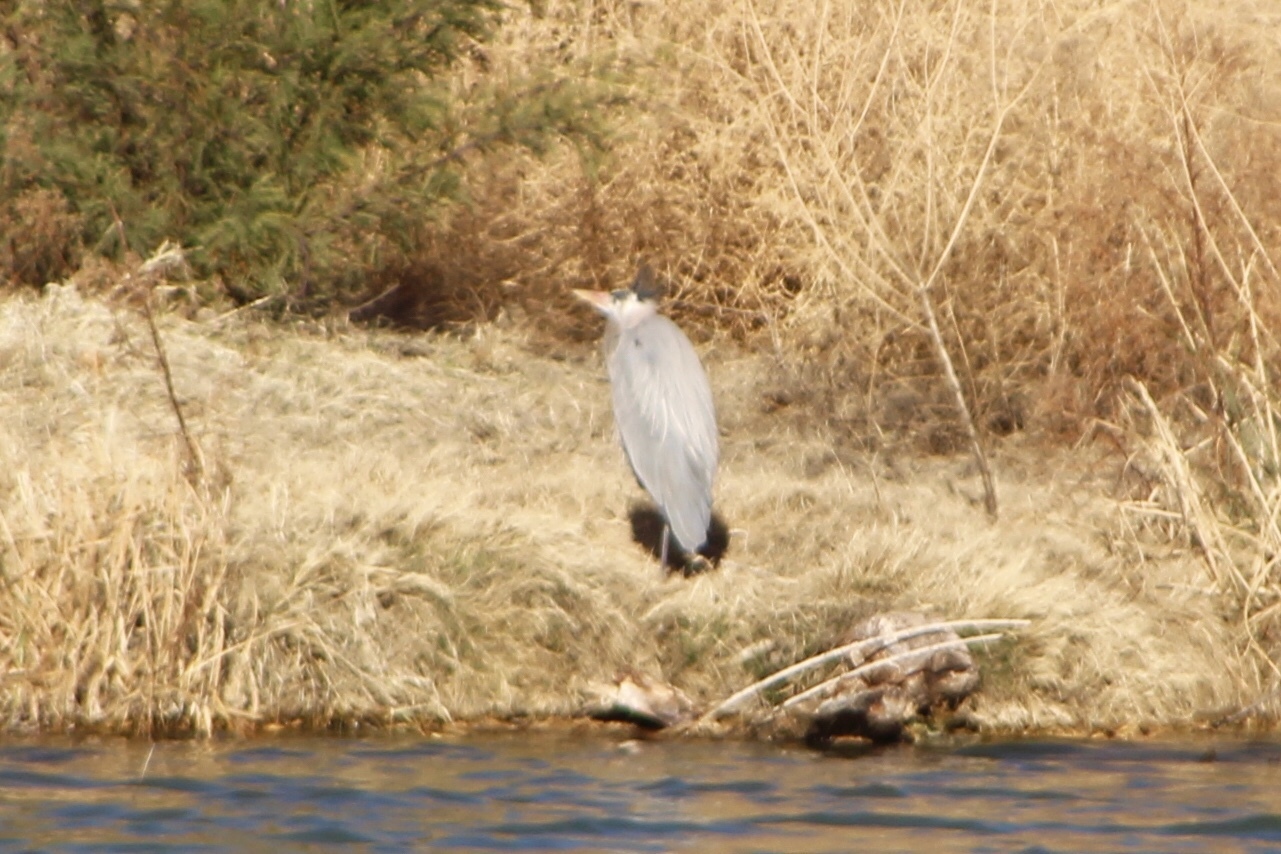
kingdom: Animalia
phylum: Chordata
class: Aves
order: Pelecaniformes
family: Ardeidae
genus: Ardea
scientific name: Ardea herodias
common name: Great blue heron
